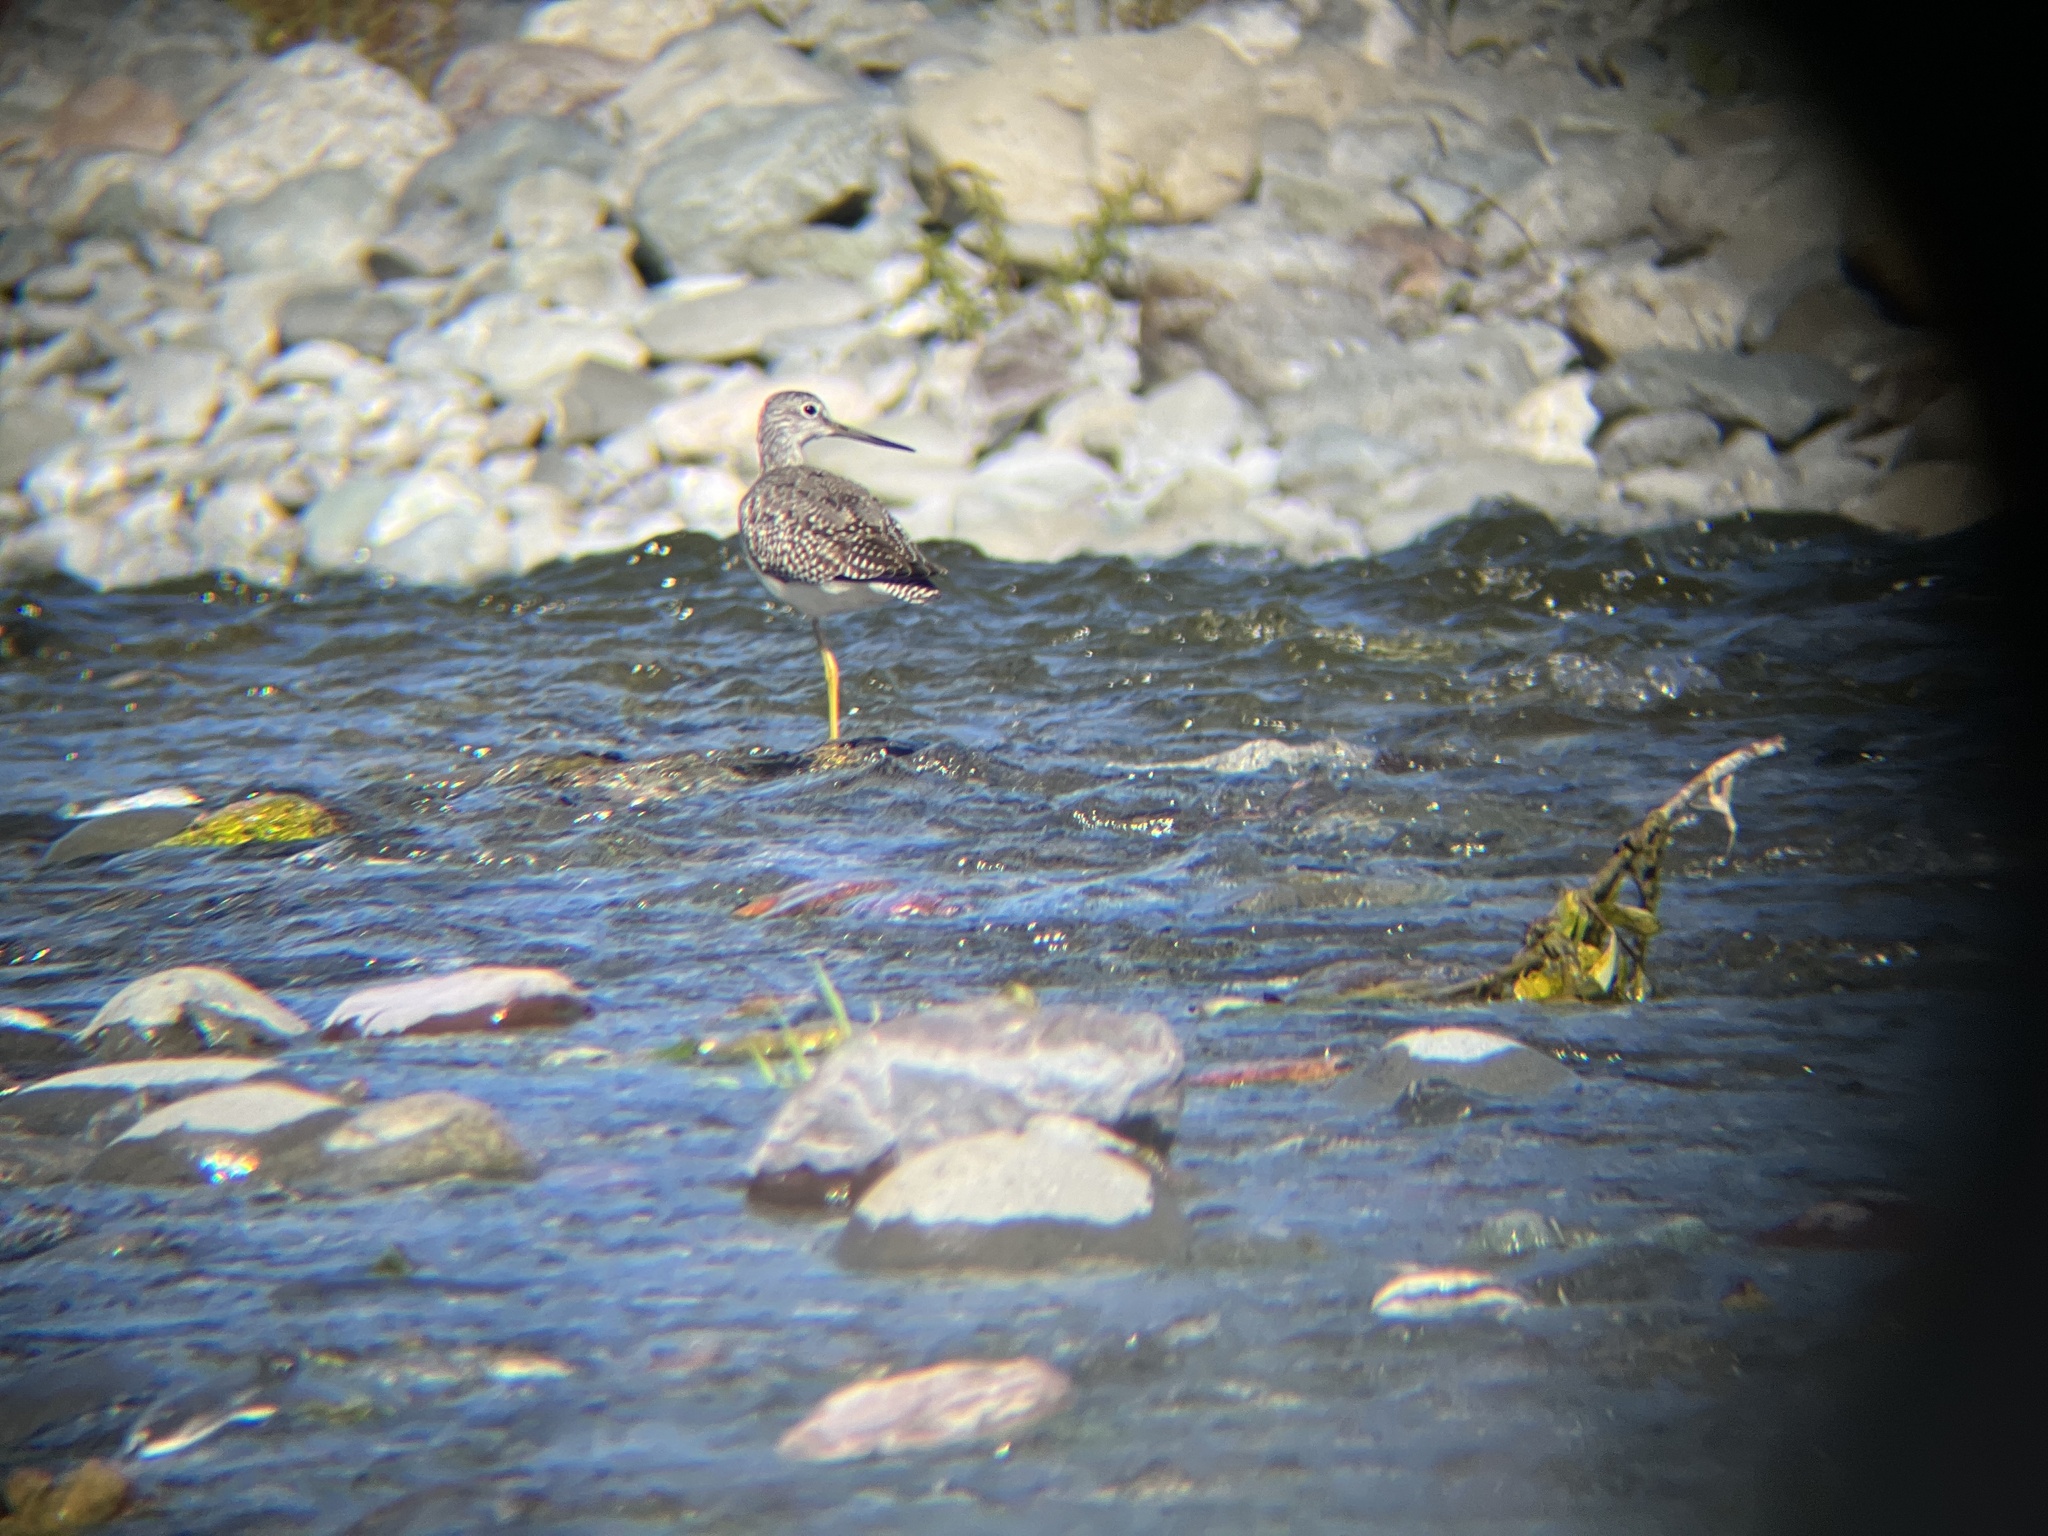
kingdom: Animalia
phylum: Chordata
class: Aves
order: Charadriiformes
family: Scolopacidae
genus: Tringa
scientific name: Tringa melanoleuca
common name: Greater yellowlegs
